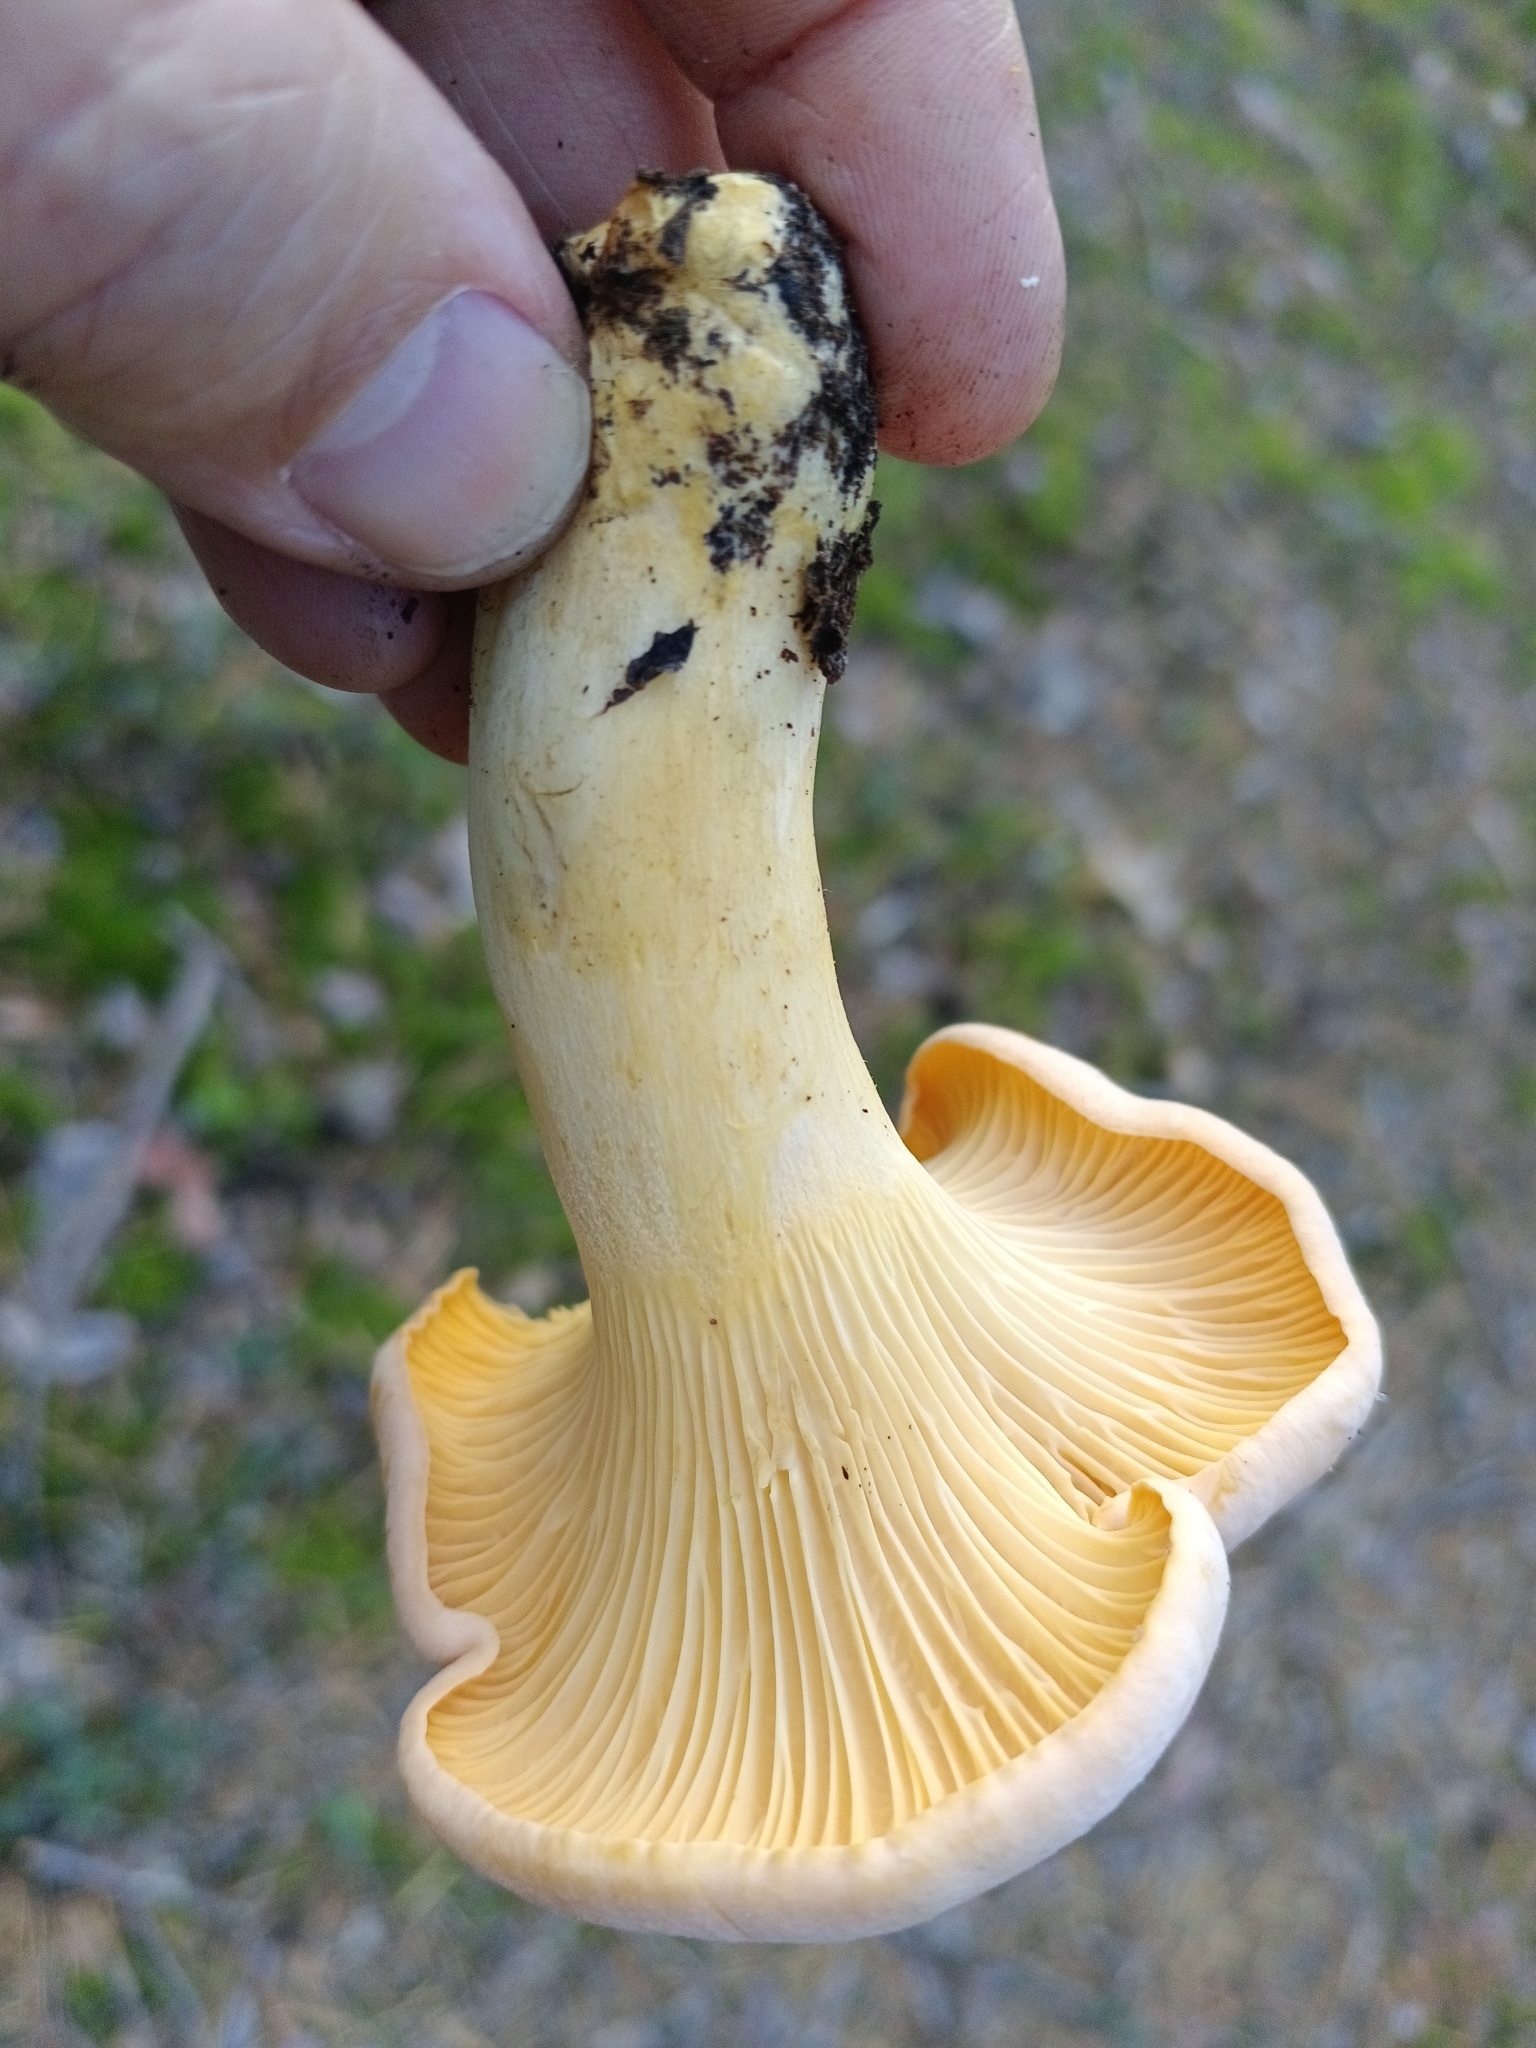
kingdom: Fungi
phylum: Basidiomycota
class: Agaricomycetes
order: Cantharellales
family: Hydnaceae
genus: Cantharellus
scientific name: Cantharellus cibarius
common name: Chanterelle
